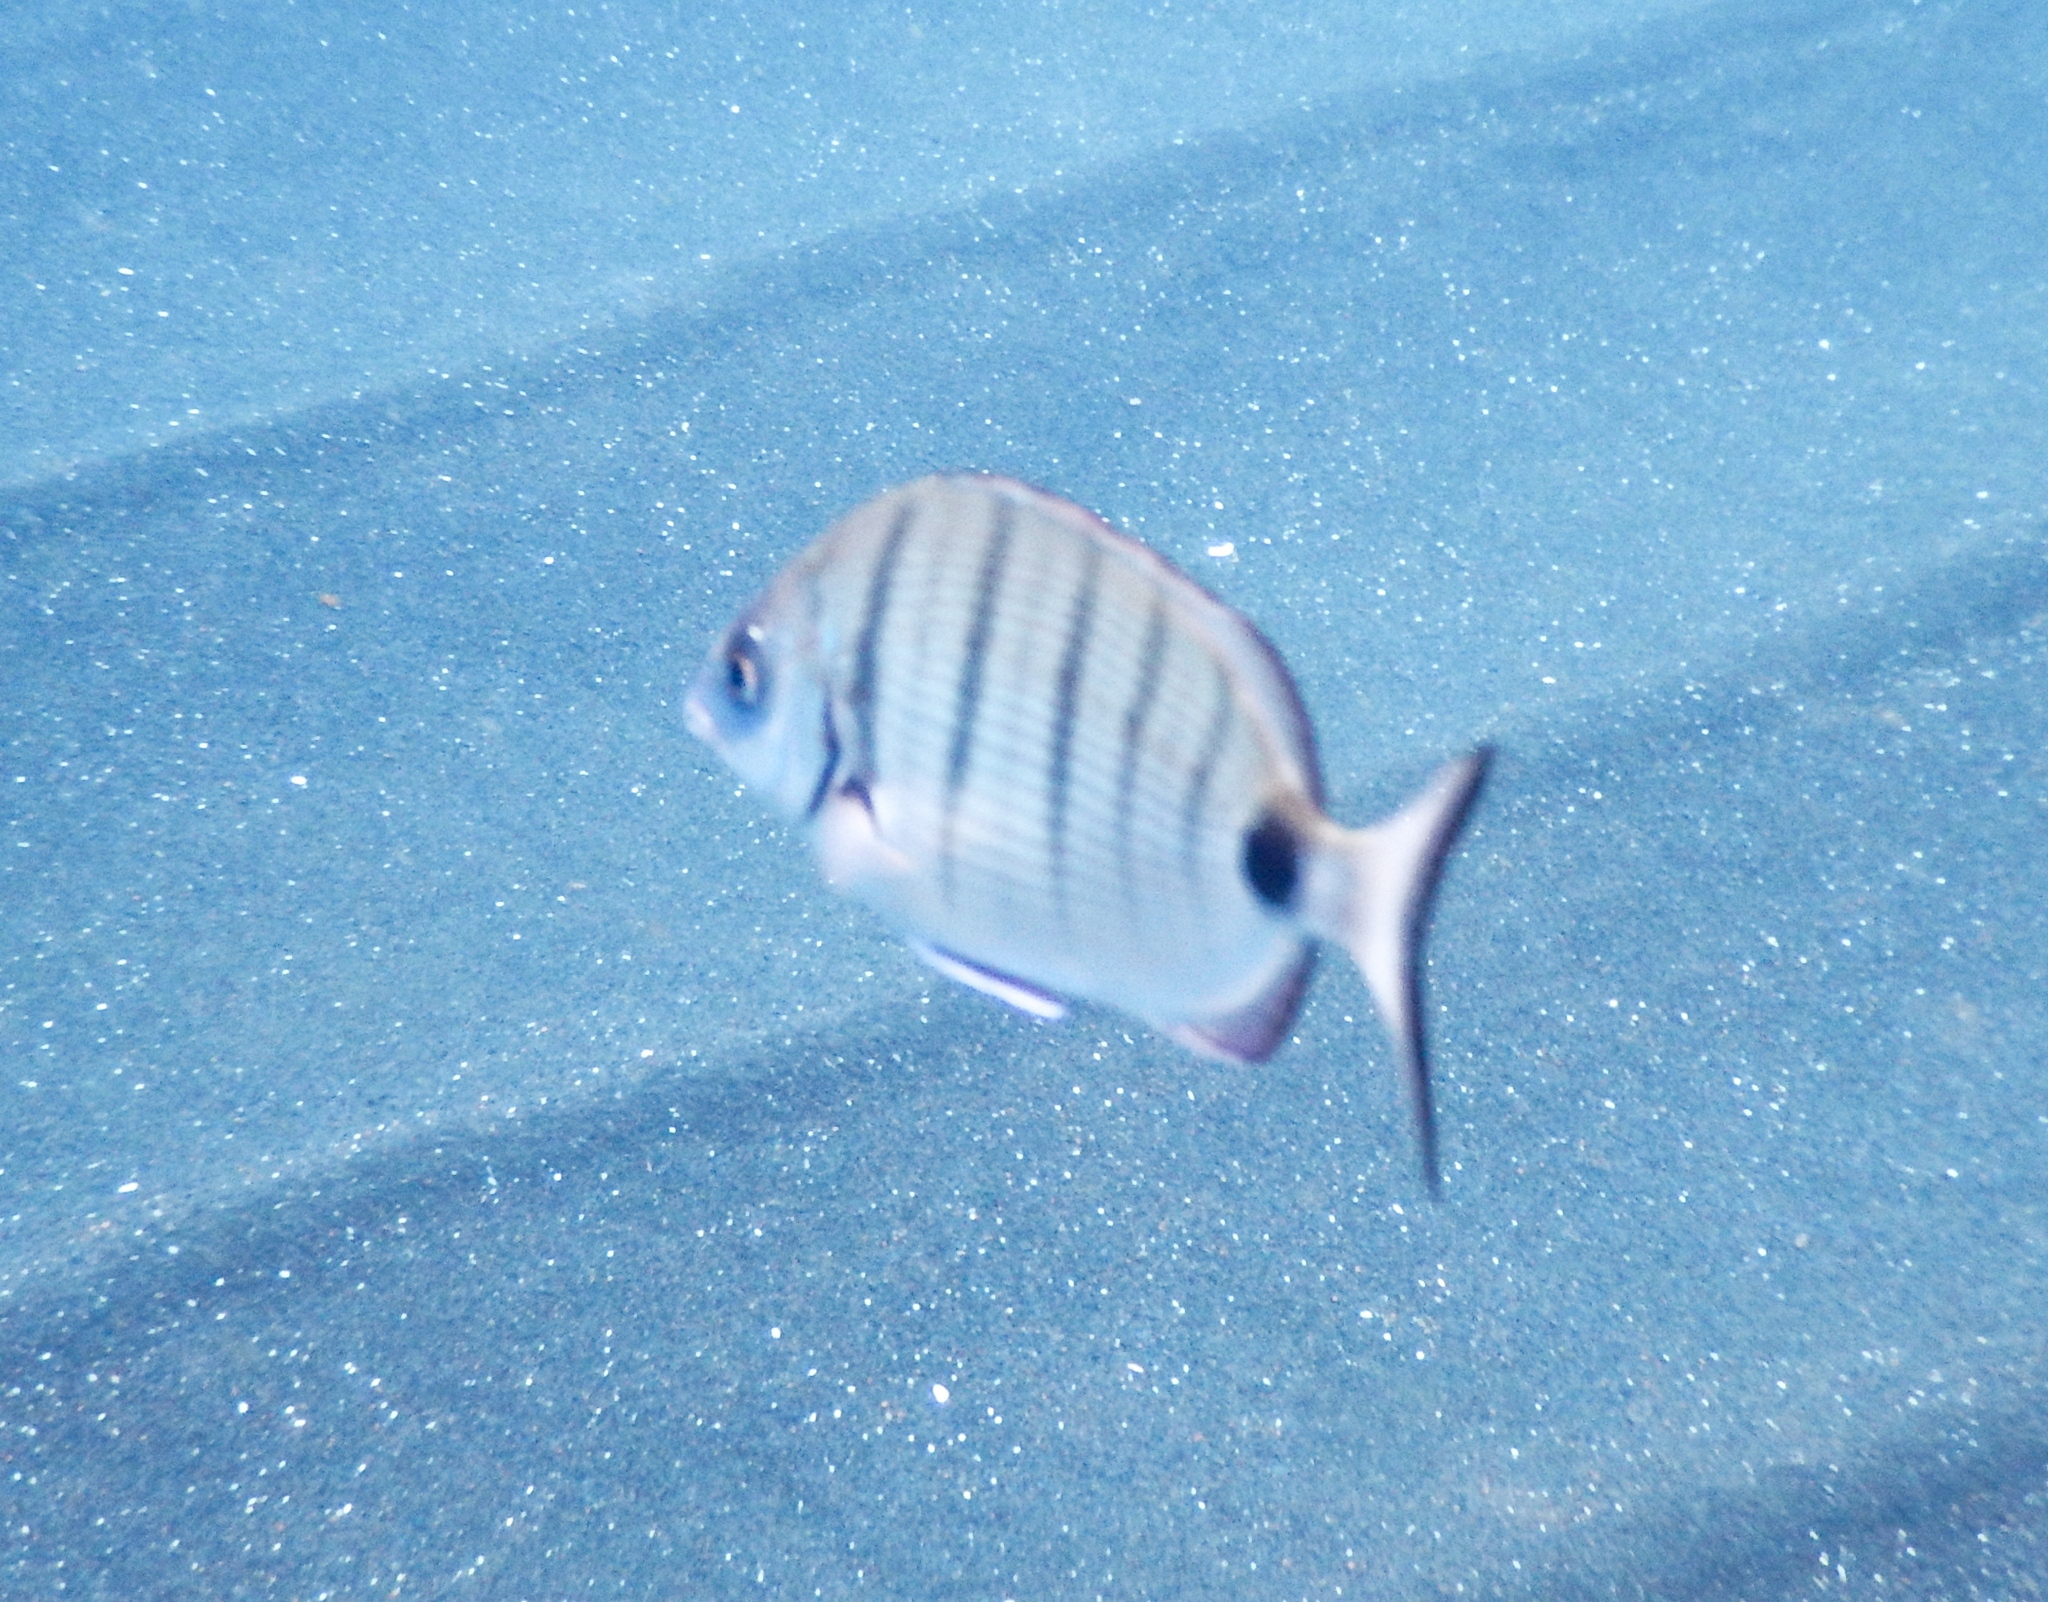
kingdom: Animalia
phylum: Chordata
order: Perciformes
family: Sparidae
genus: Diplodus
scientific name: Diplodus cadenati
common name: Moroccan white seabream
